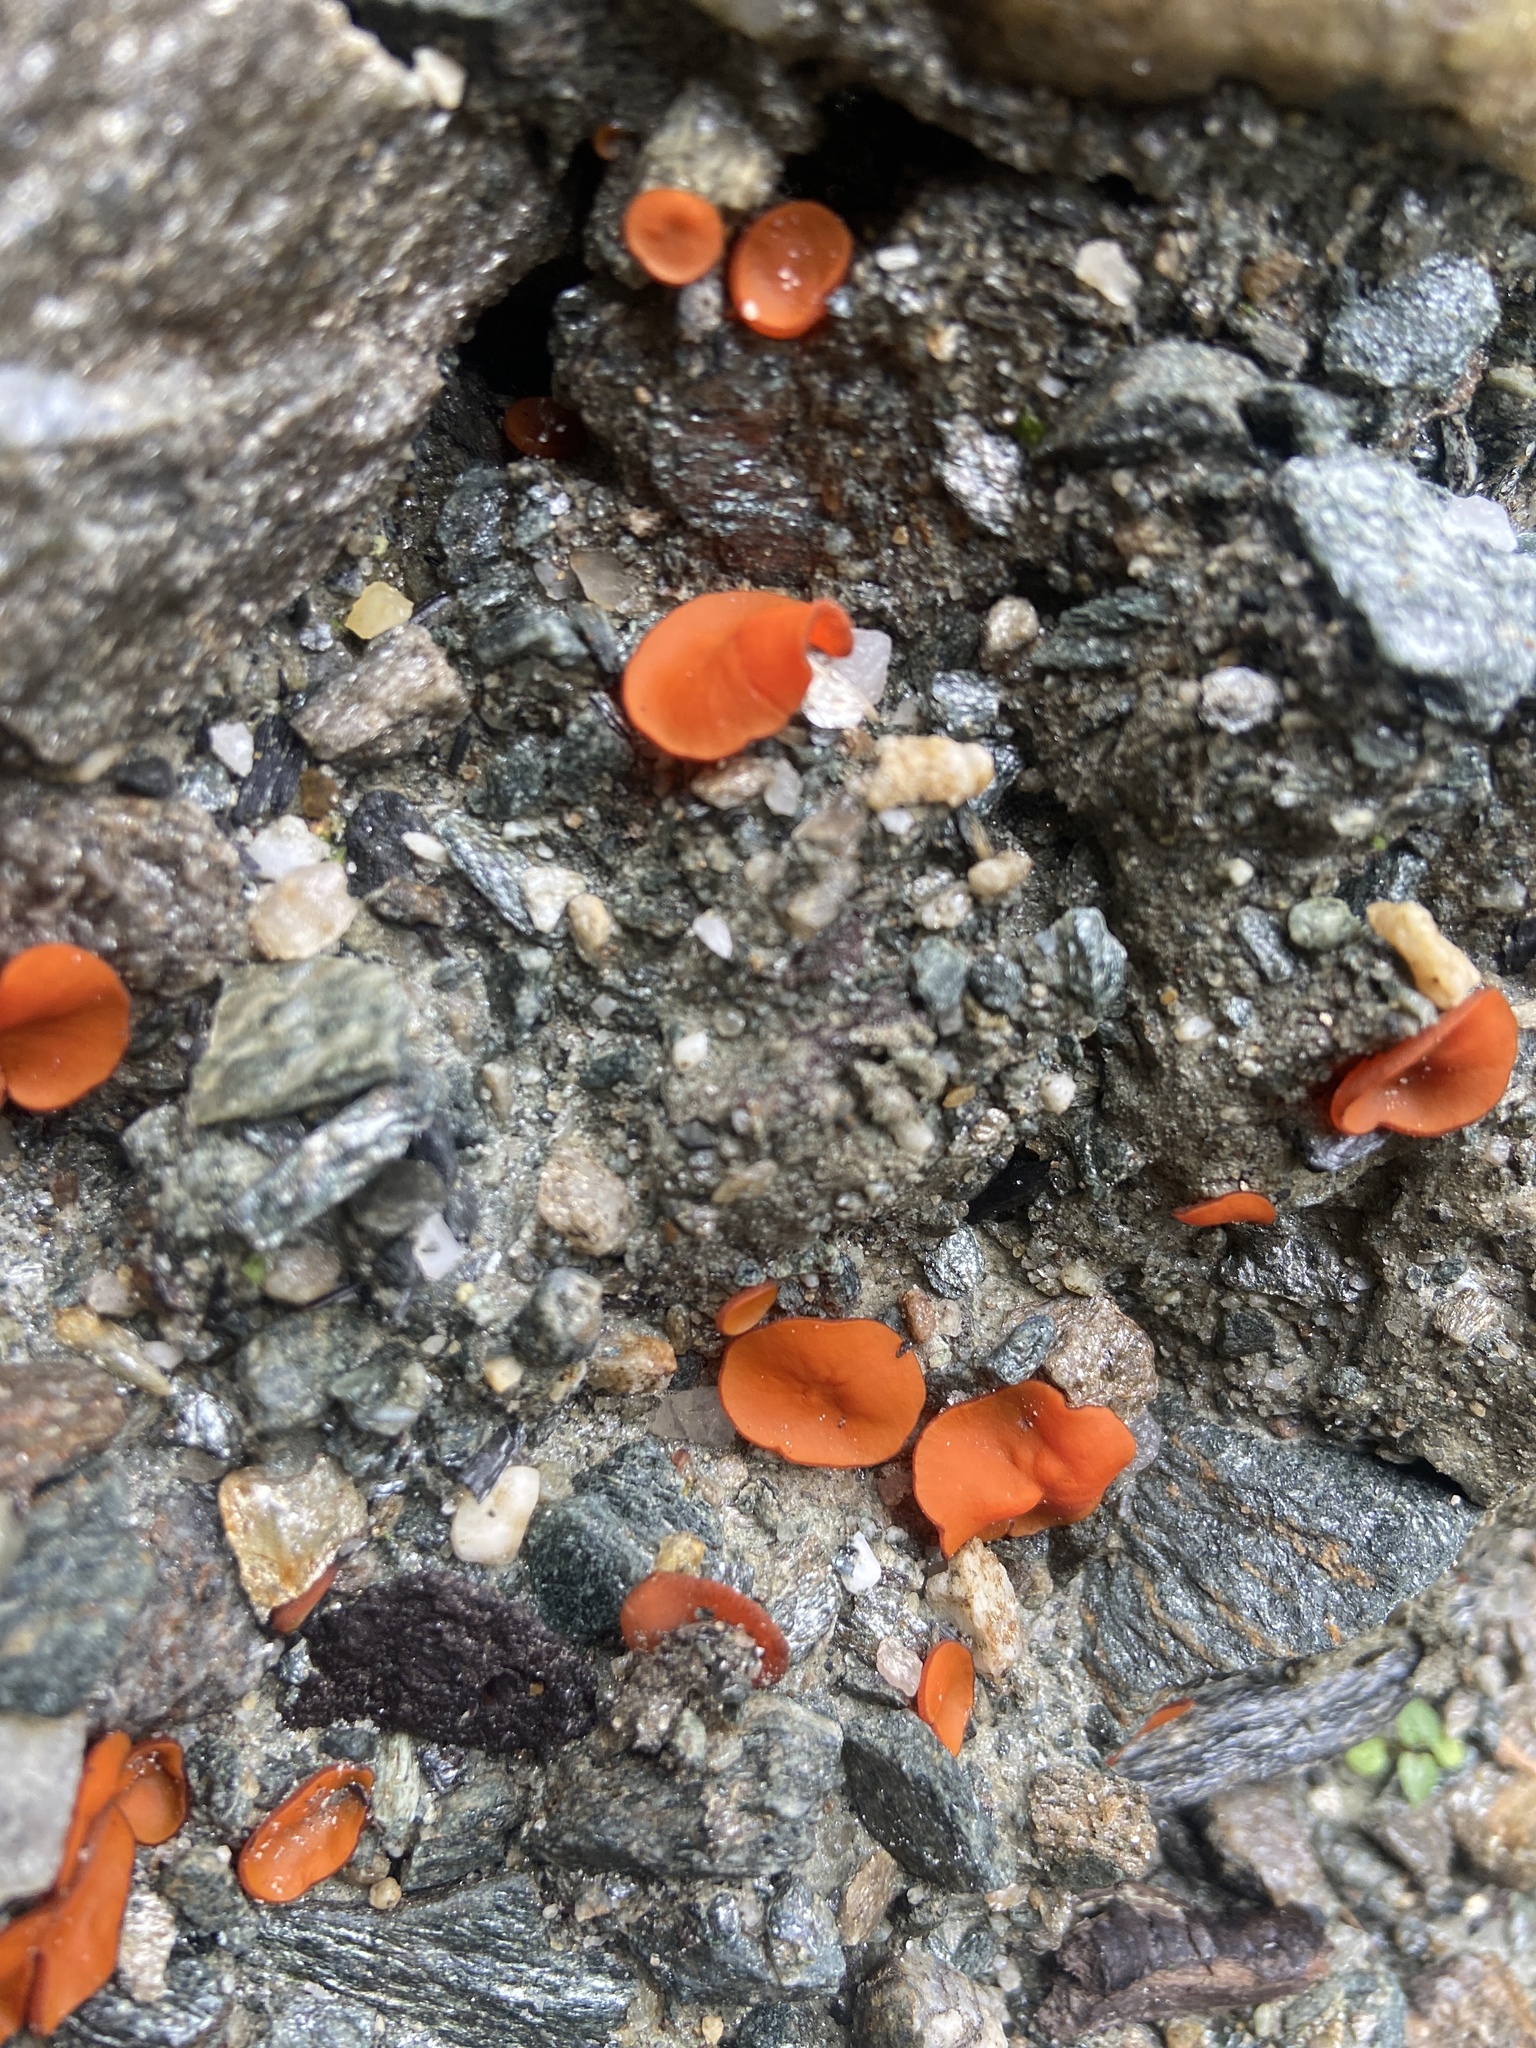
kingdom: Fungi
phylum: Ascomycota
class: Pezizomycetes
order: Pezizales
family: Pyronemataceae
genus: Aleuria
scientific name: Aleuria aurantia
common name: Orange peel fungus
